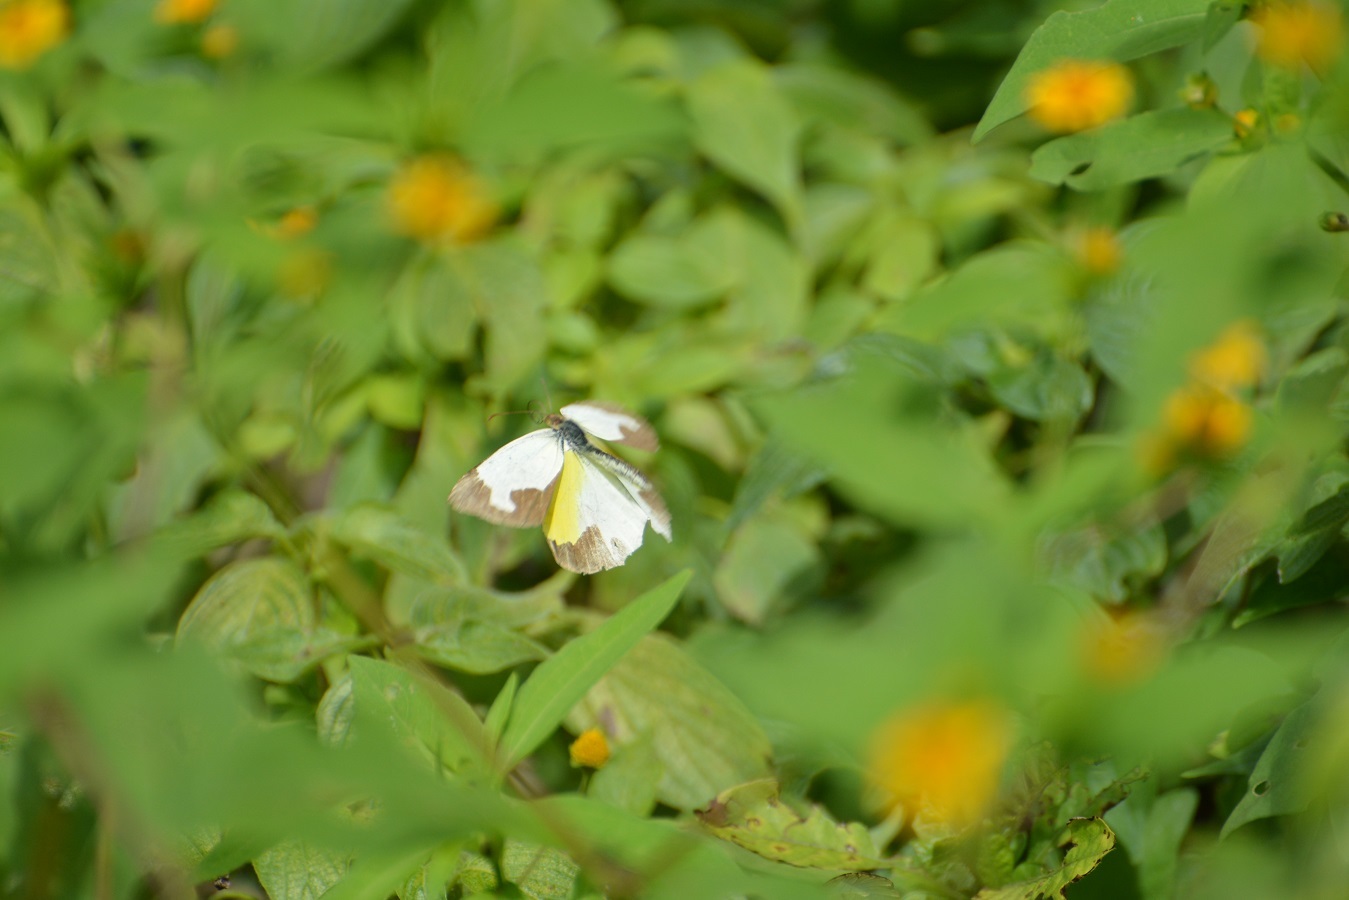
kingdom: Animalia
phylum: Arthropoda
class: Insecta
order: Lepidoptera
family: Pieridae
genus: Abaeis
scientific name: Abaeis mexicana
